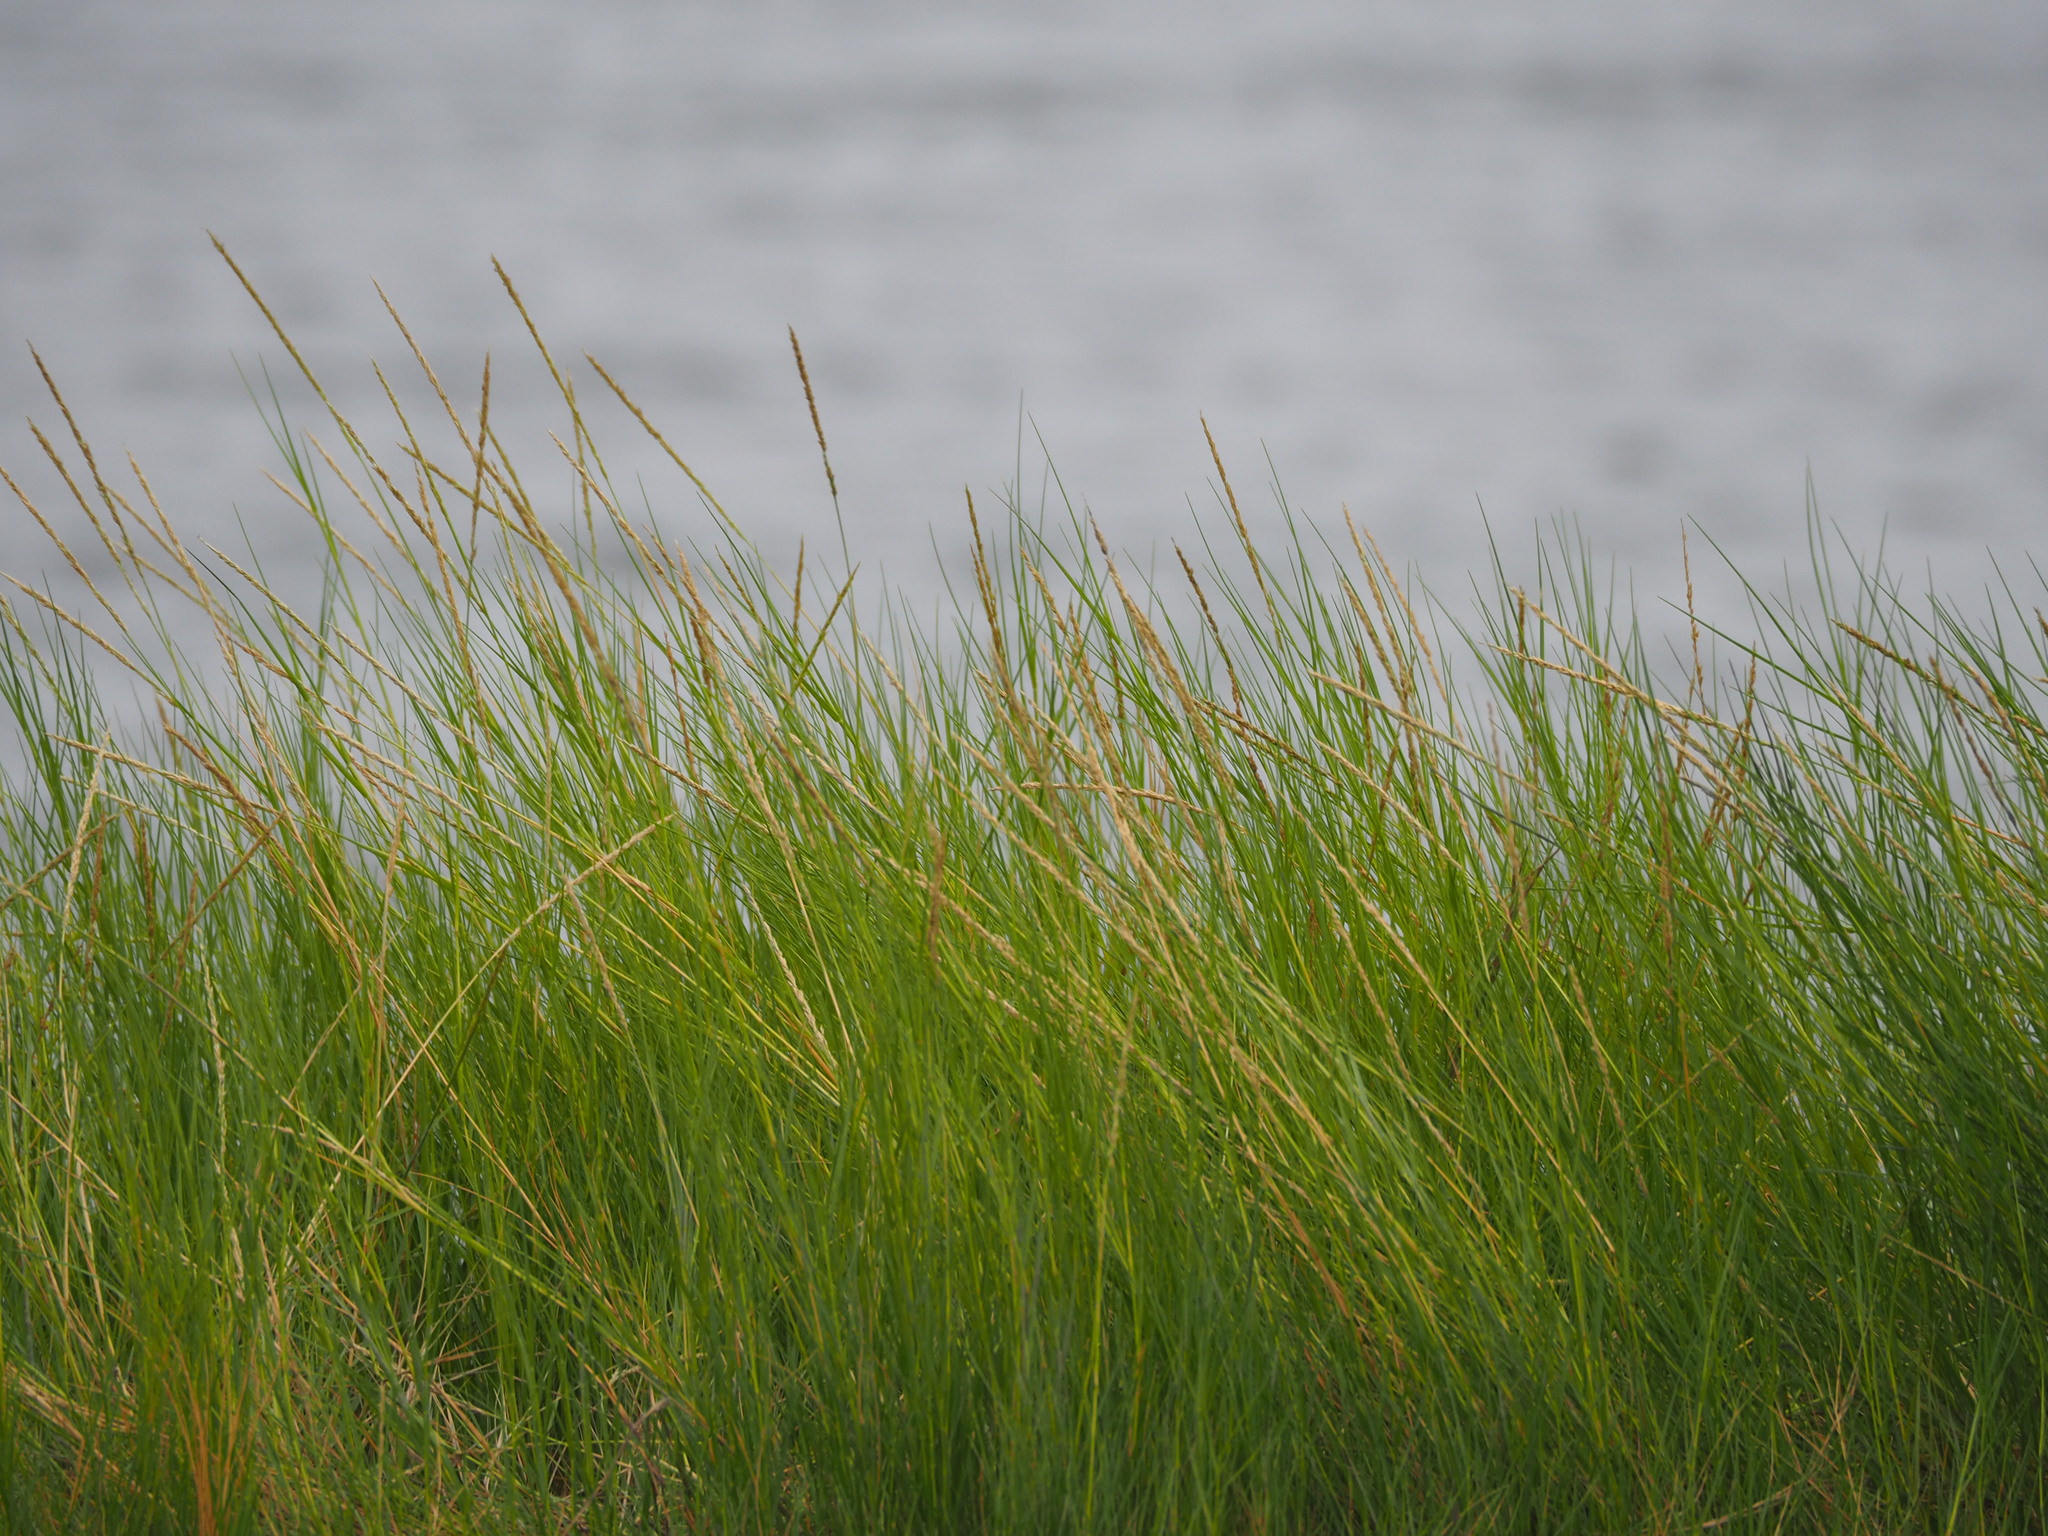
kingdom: Plantae
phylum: Tracheophyta
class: Liliopsida
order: Poales
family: Poaceae
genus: Sporobolus
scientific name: Sporobolus virginicus
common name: Beach dropseed
